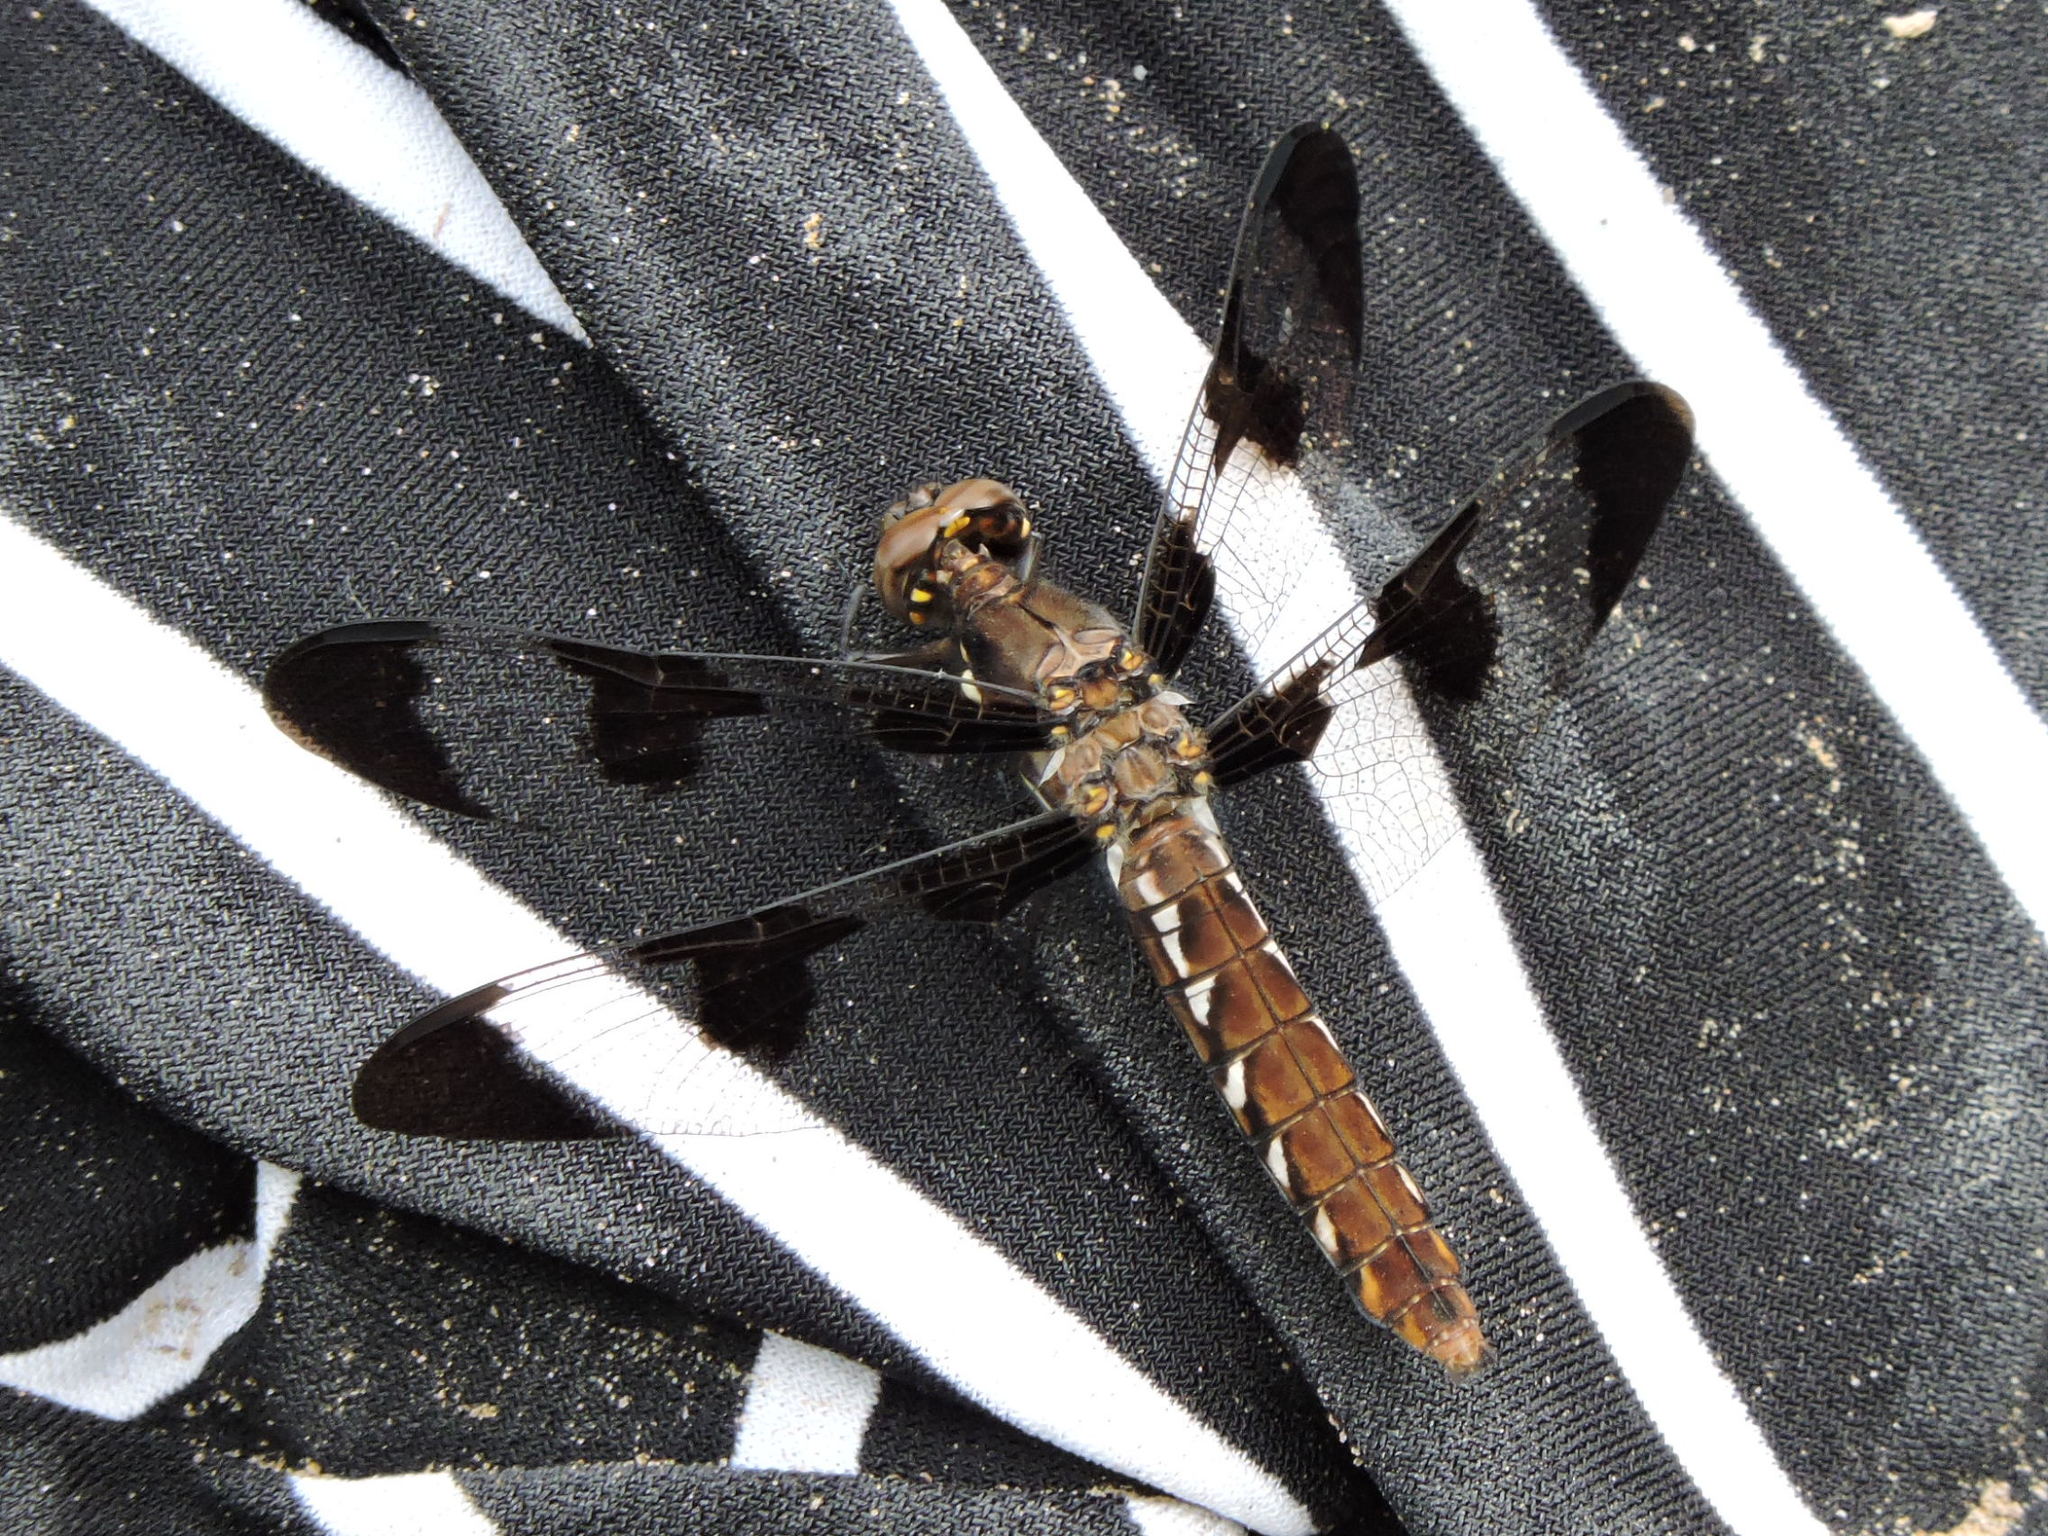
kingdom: Animalia
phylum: Arthropoda
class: Insecta
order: Odonata
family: Libellulidae
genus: Plathemis
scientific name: Plathemis lydia
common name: Common whitetail
